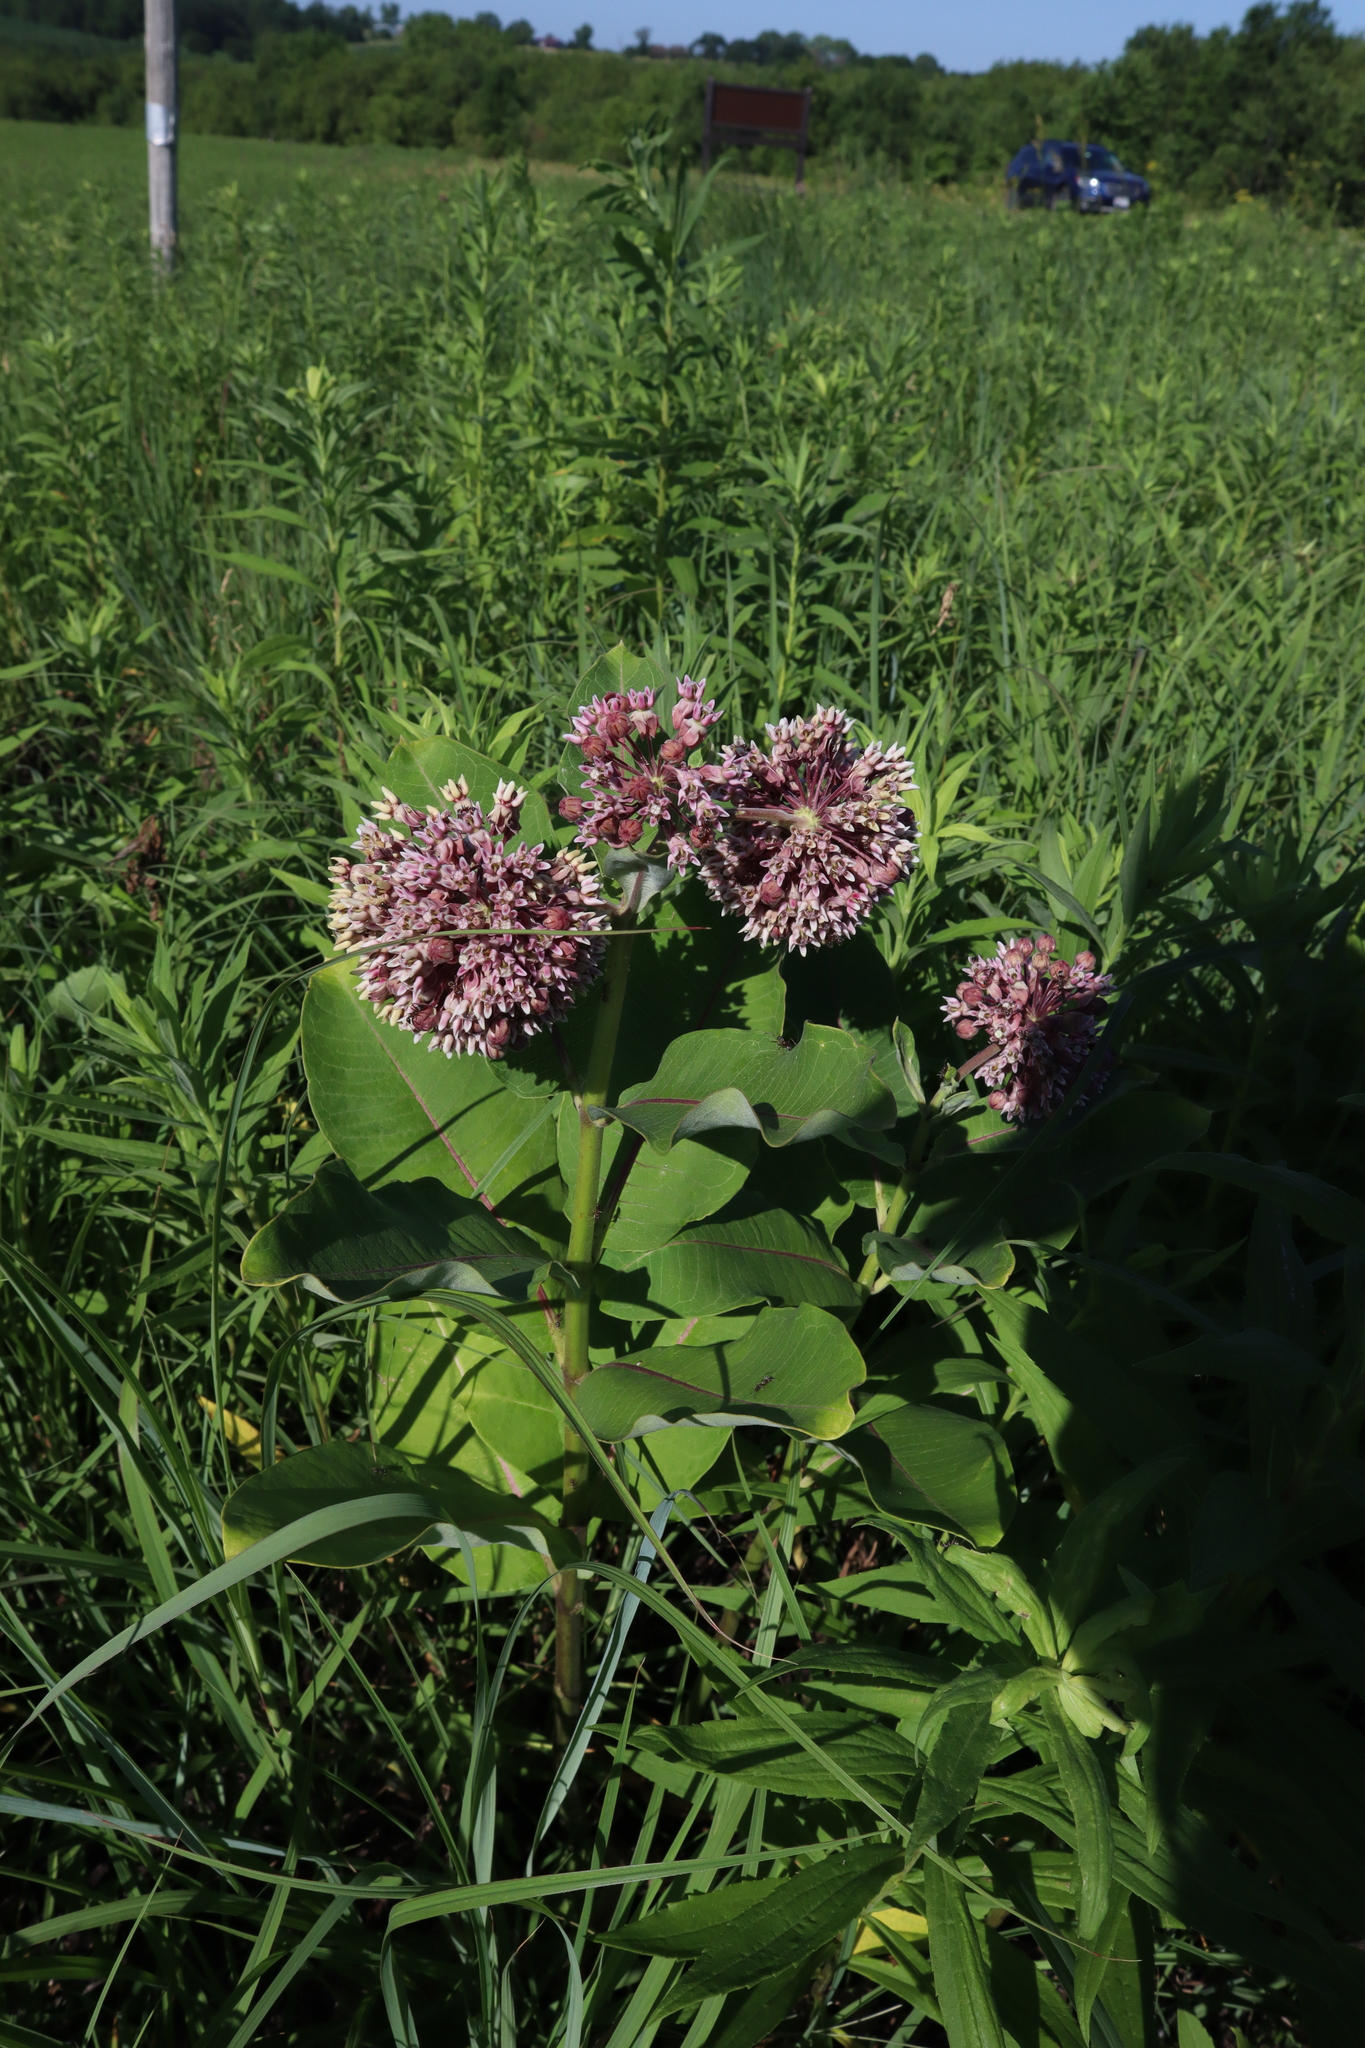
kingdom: Plantae
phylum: Tracheophyta
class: Magnoliopsida
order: Gentianales
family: Apocynaceae
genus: Asclepias
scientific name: Asclepias syriaca
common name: Common milkweed
